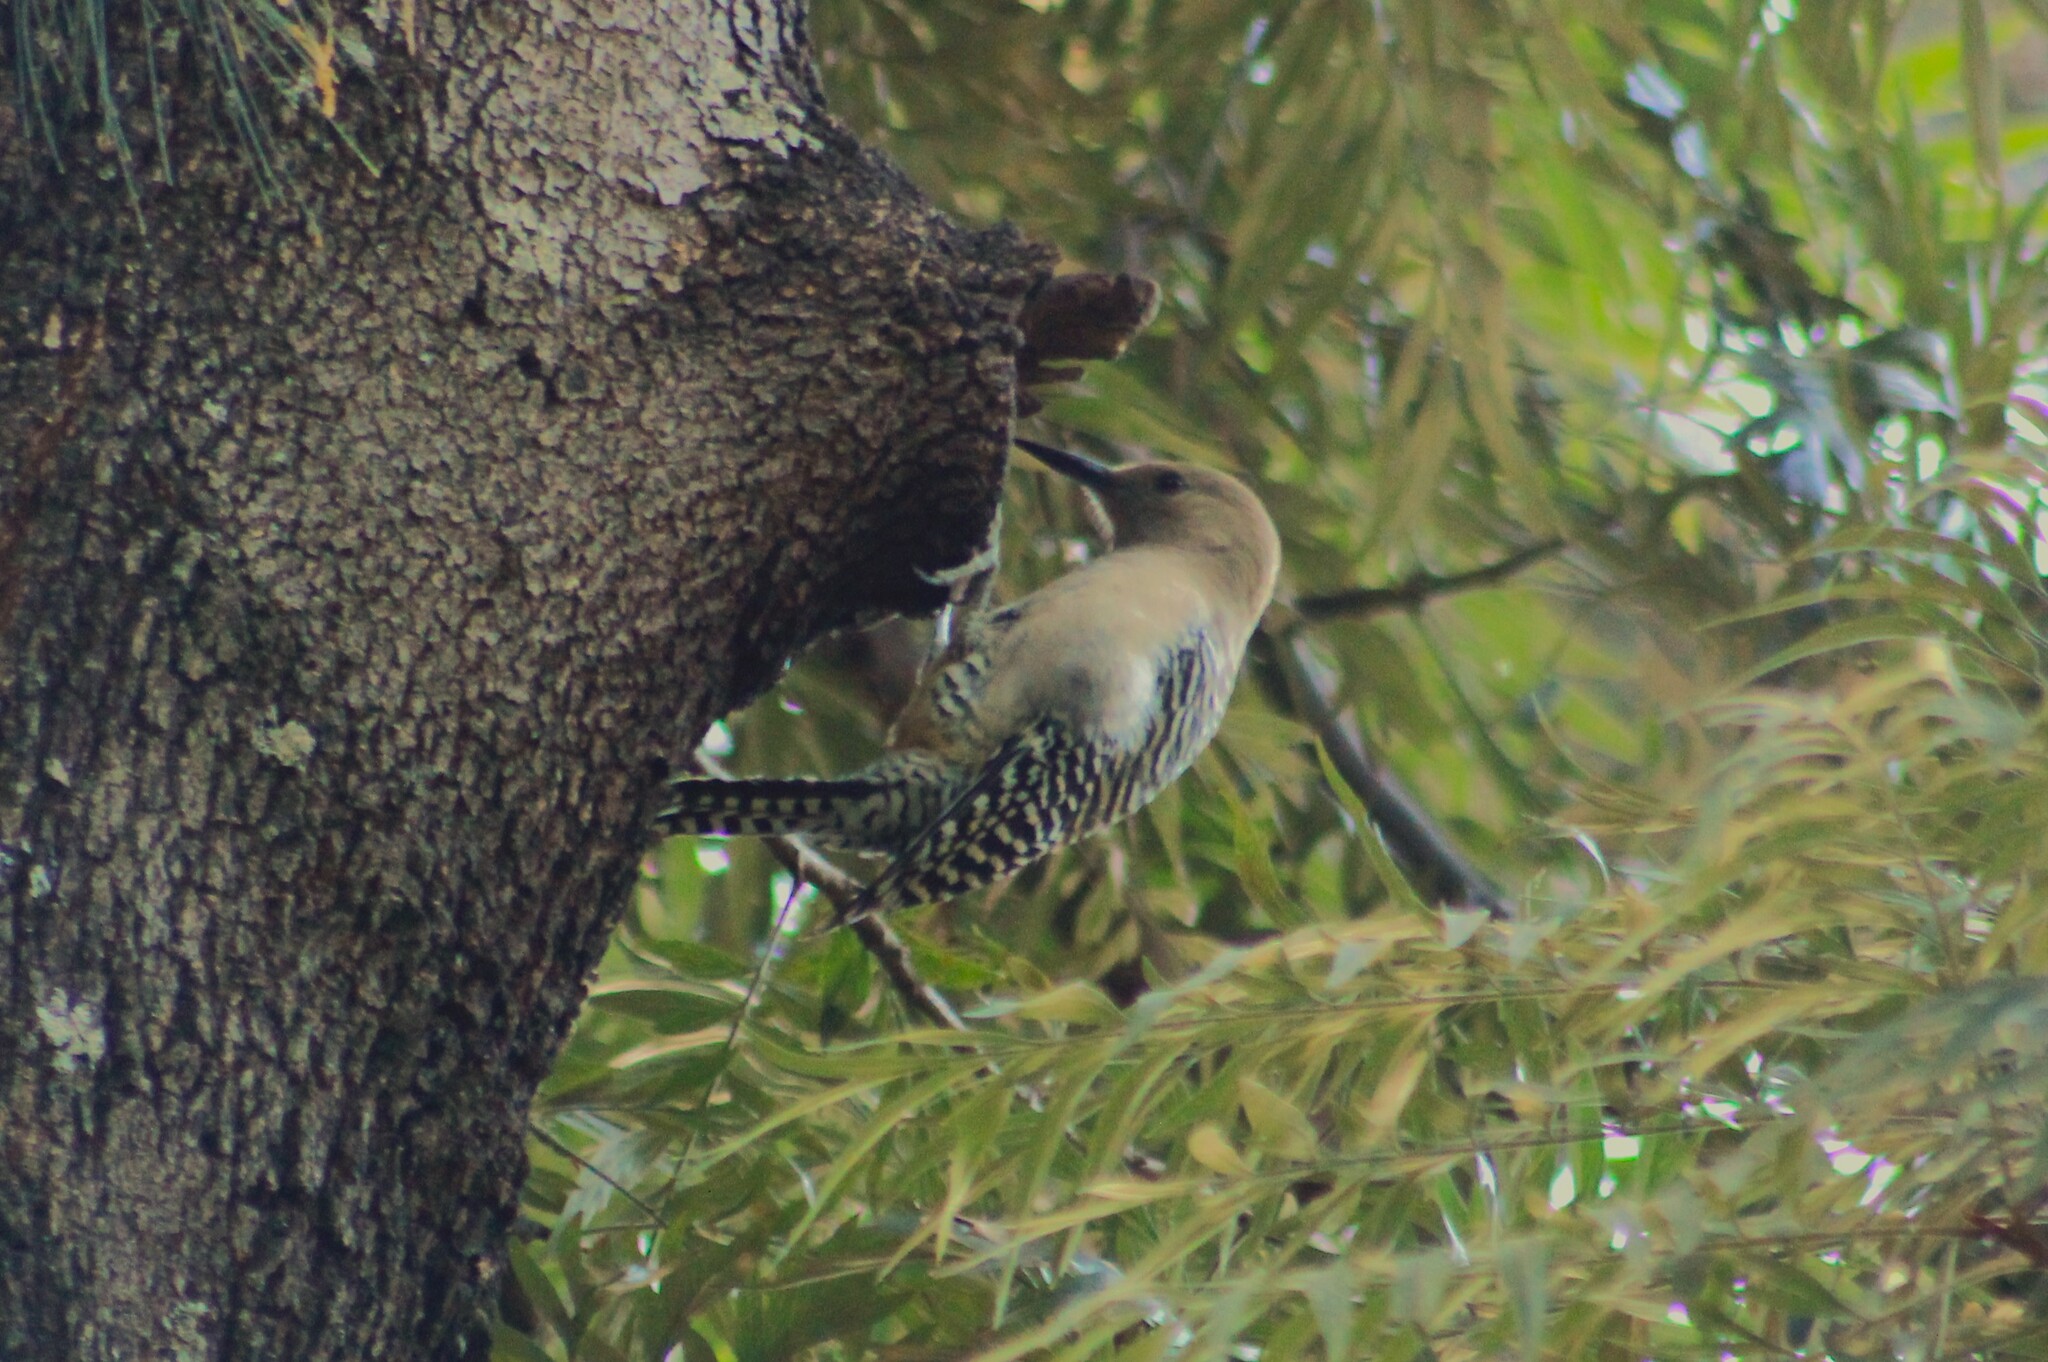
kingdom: Animalia
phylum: Chordata
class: Aves
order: Piciformes
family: Picidae
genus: Melanerpes
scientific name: Melanerpes uropygialis
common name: Gila woodpecker
